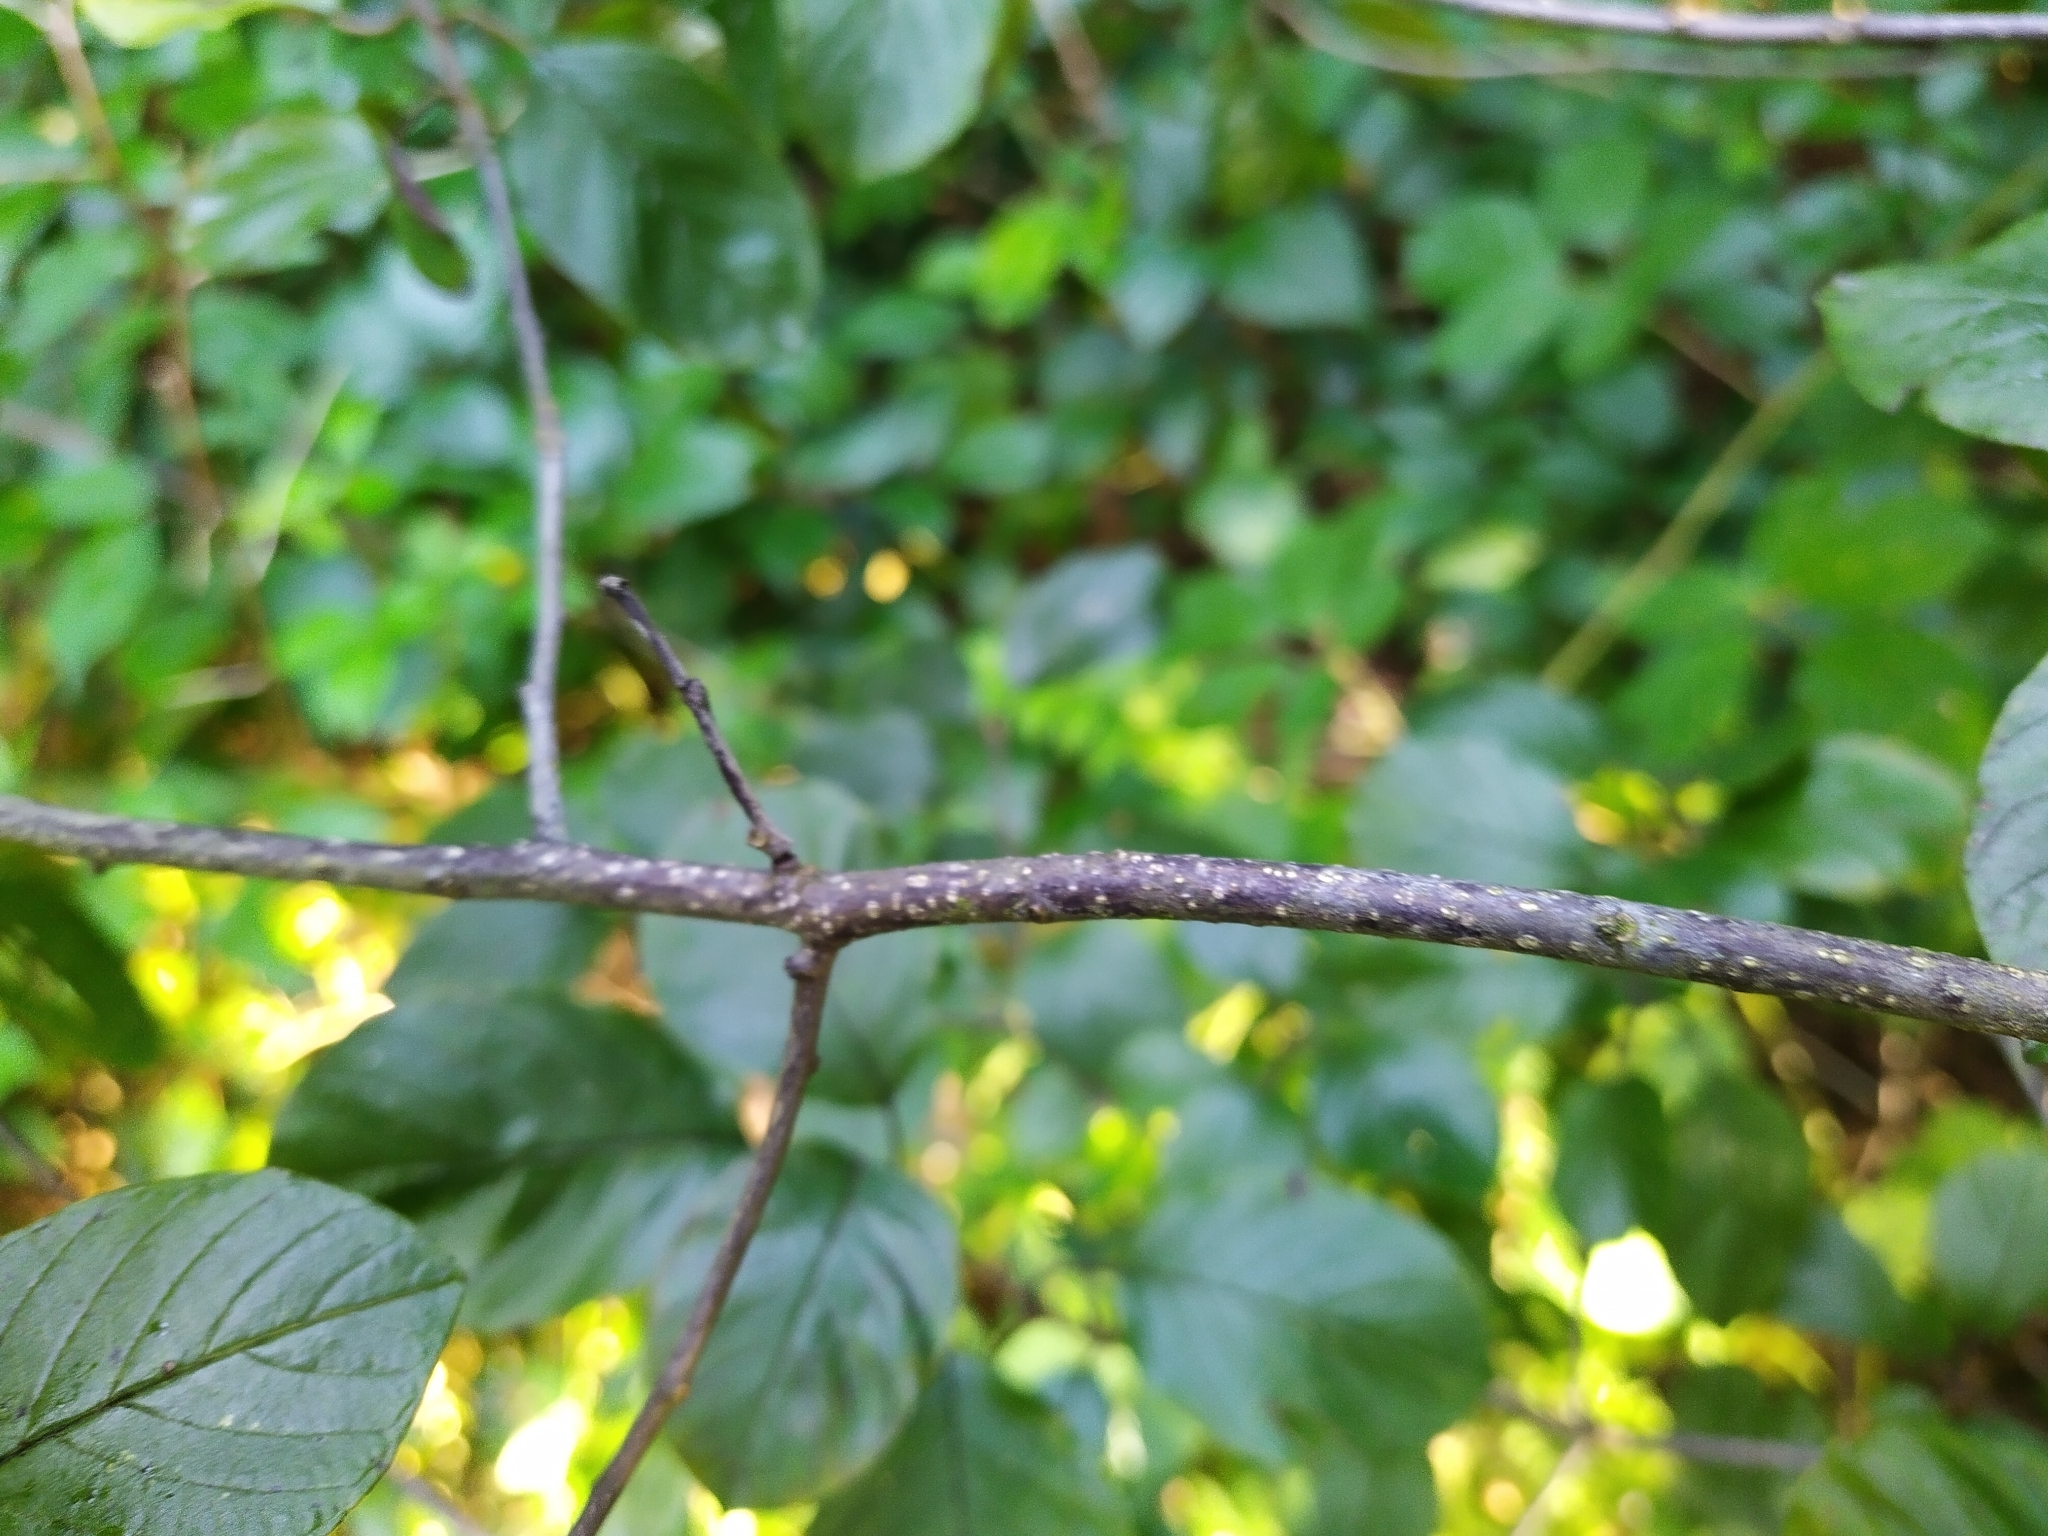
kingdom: Plantae
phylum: Tracheophyta
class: Magnoliopsida
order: Rosales
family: Rhamnaceae
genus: Frangula
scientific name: Frangula alnus
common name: Alder buckthorn
